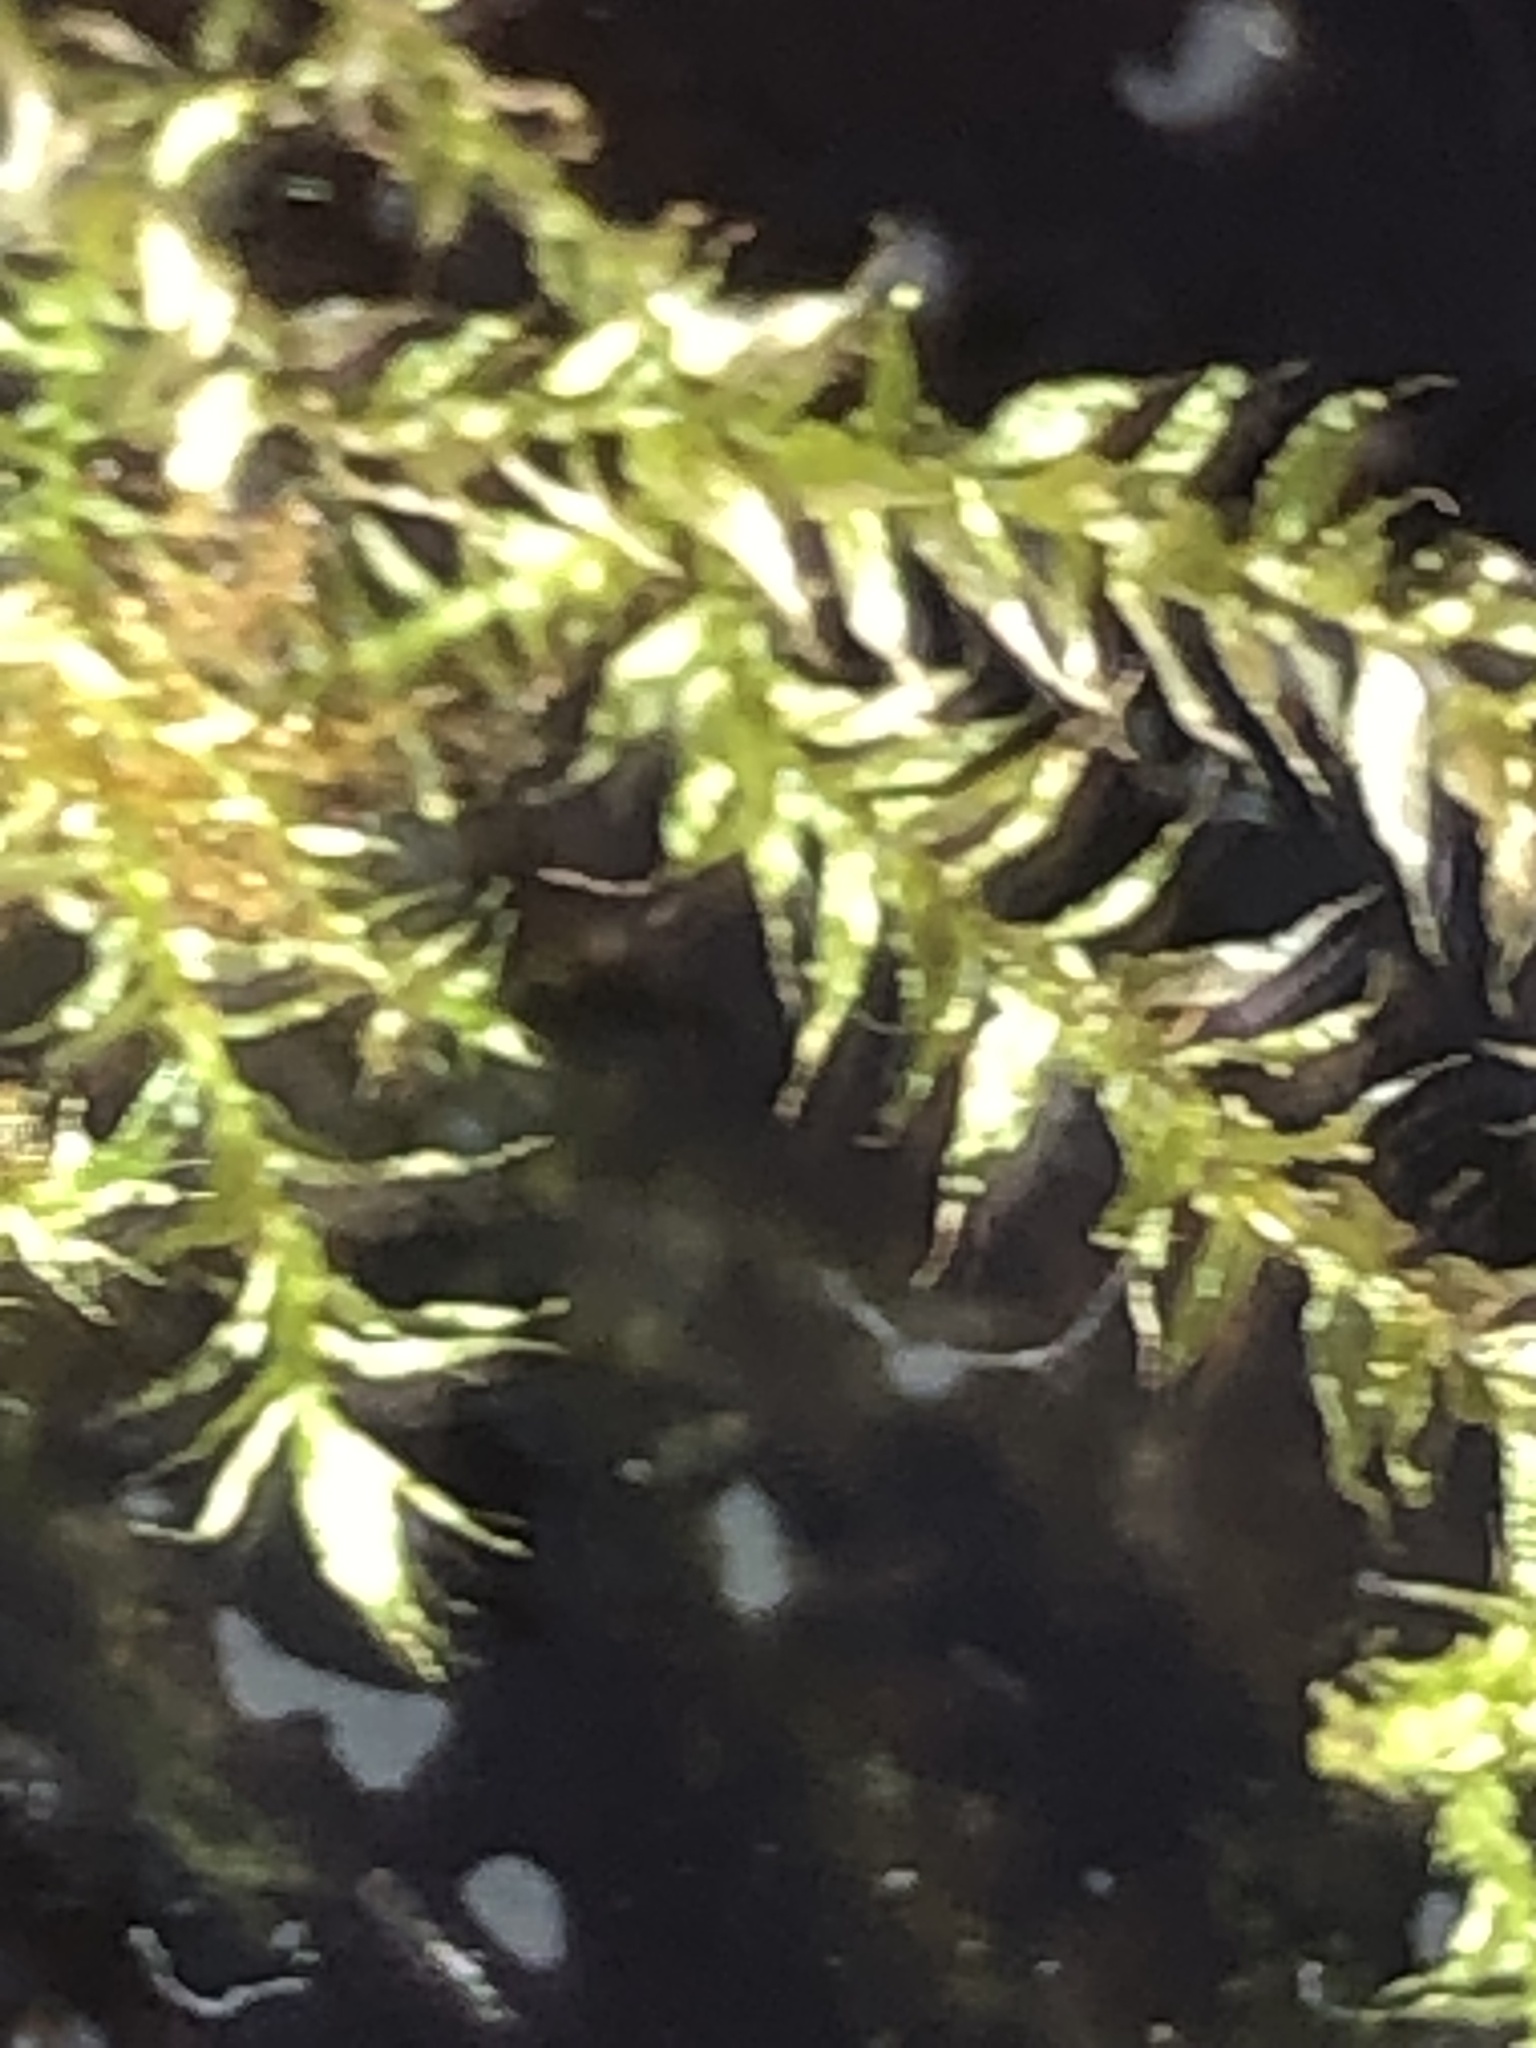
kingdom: Plantae
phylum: Bryophyta
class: Bryopsida
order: Hypnales
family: Amblystegiaceae
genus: Leptodictyum
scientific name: Leptodictyum riparium
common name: Riparian feather moss
